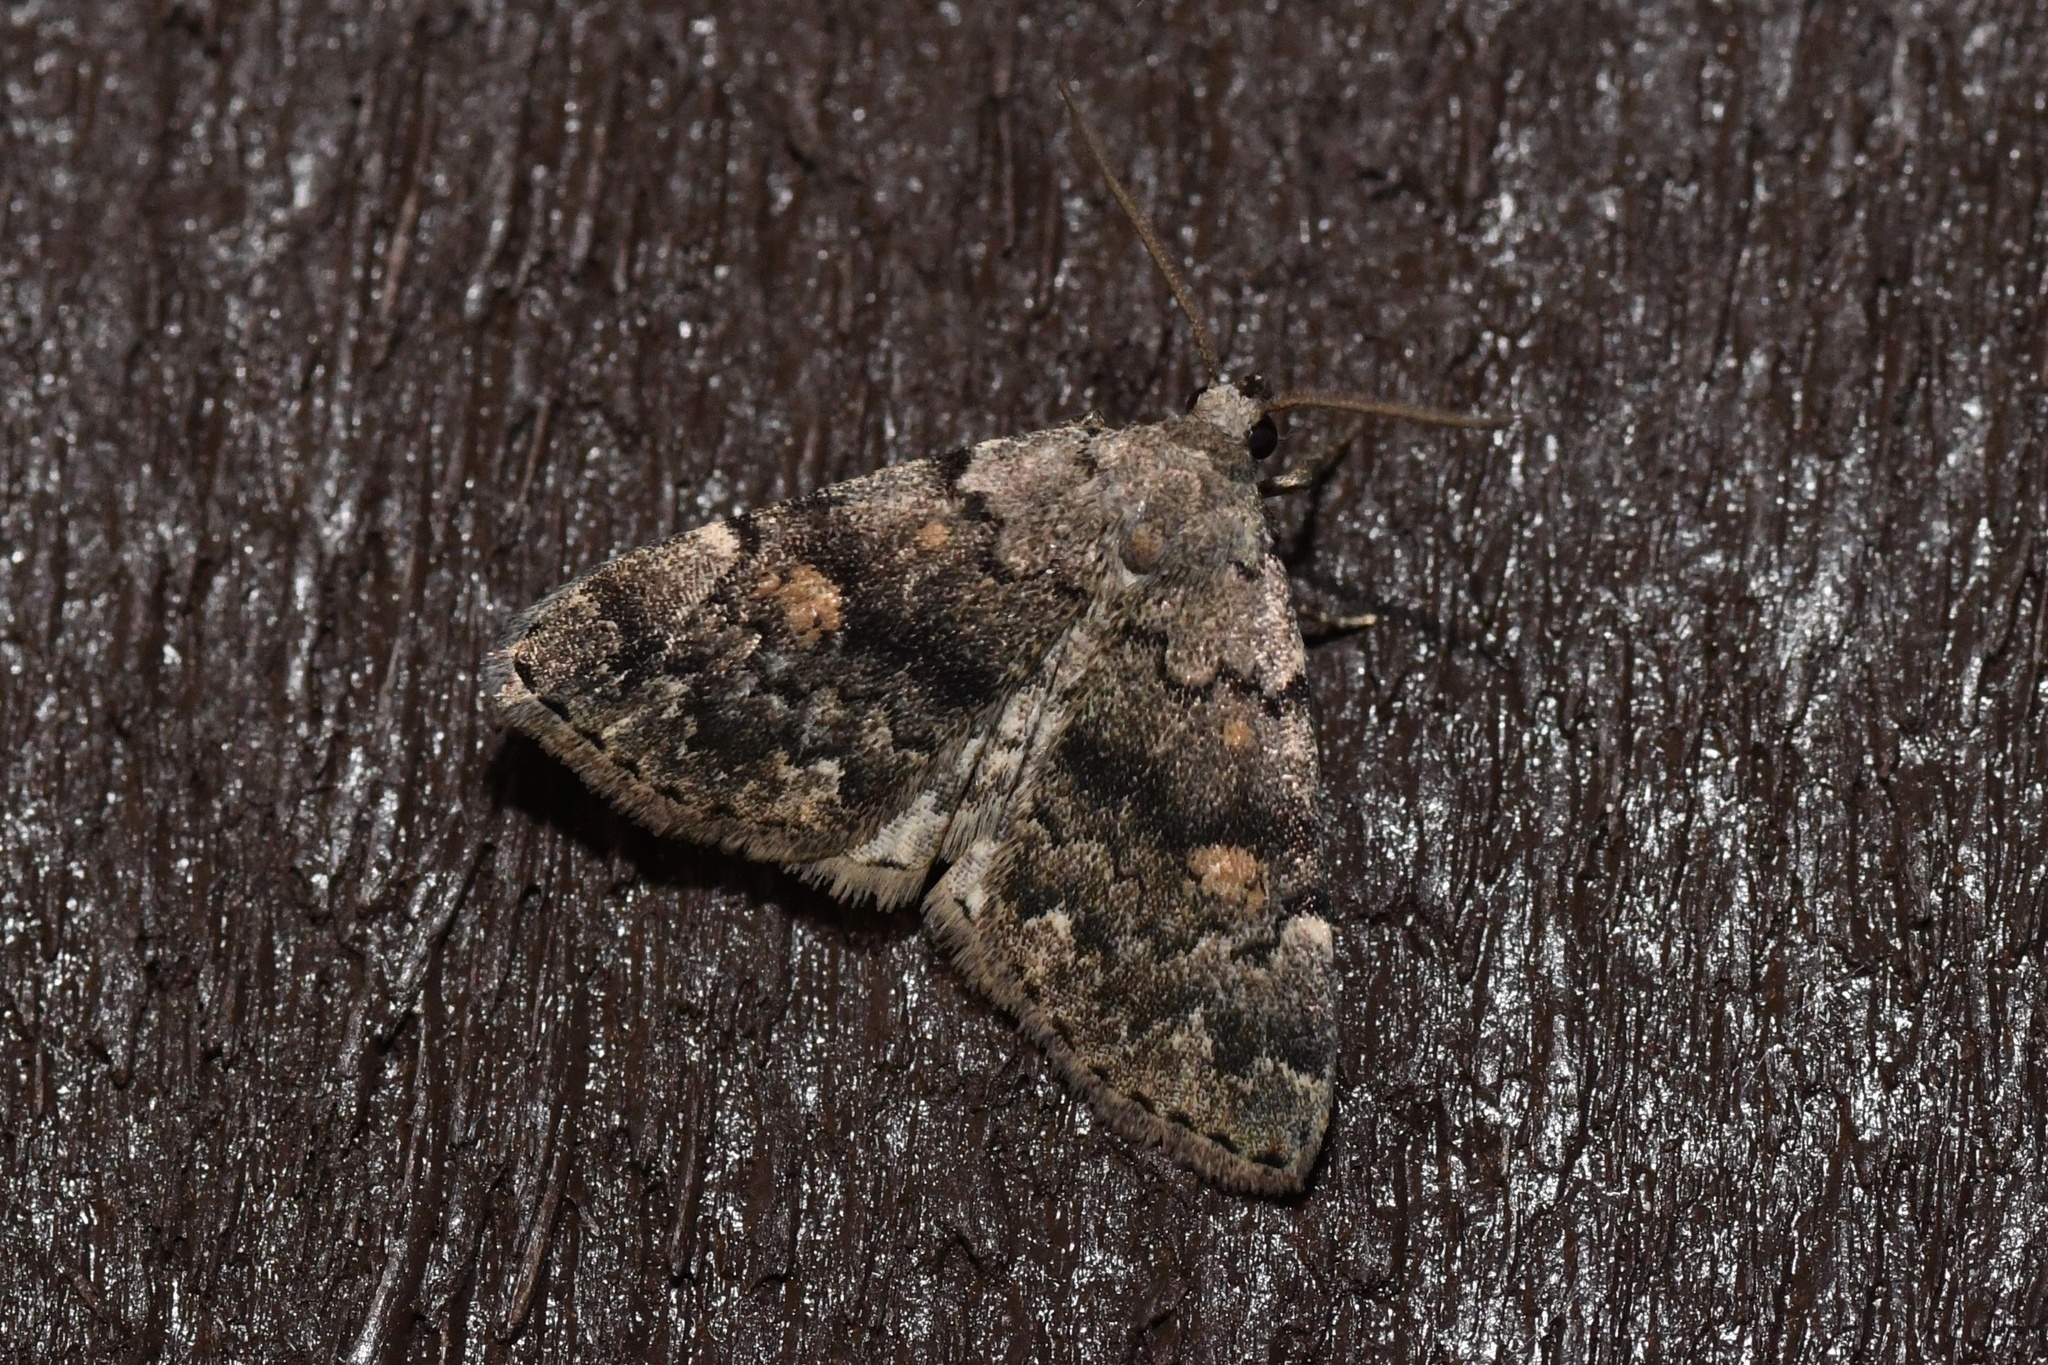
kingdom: Animalia
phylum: Arthropoda
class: Insecta
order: Lepidoptera
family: Erebidae
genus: Idia
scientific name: Idia aemula
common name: Common idia moth
